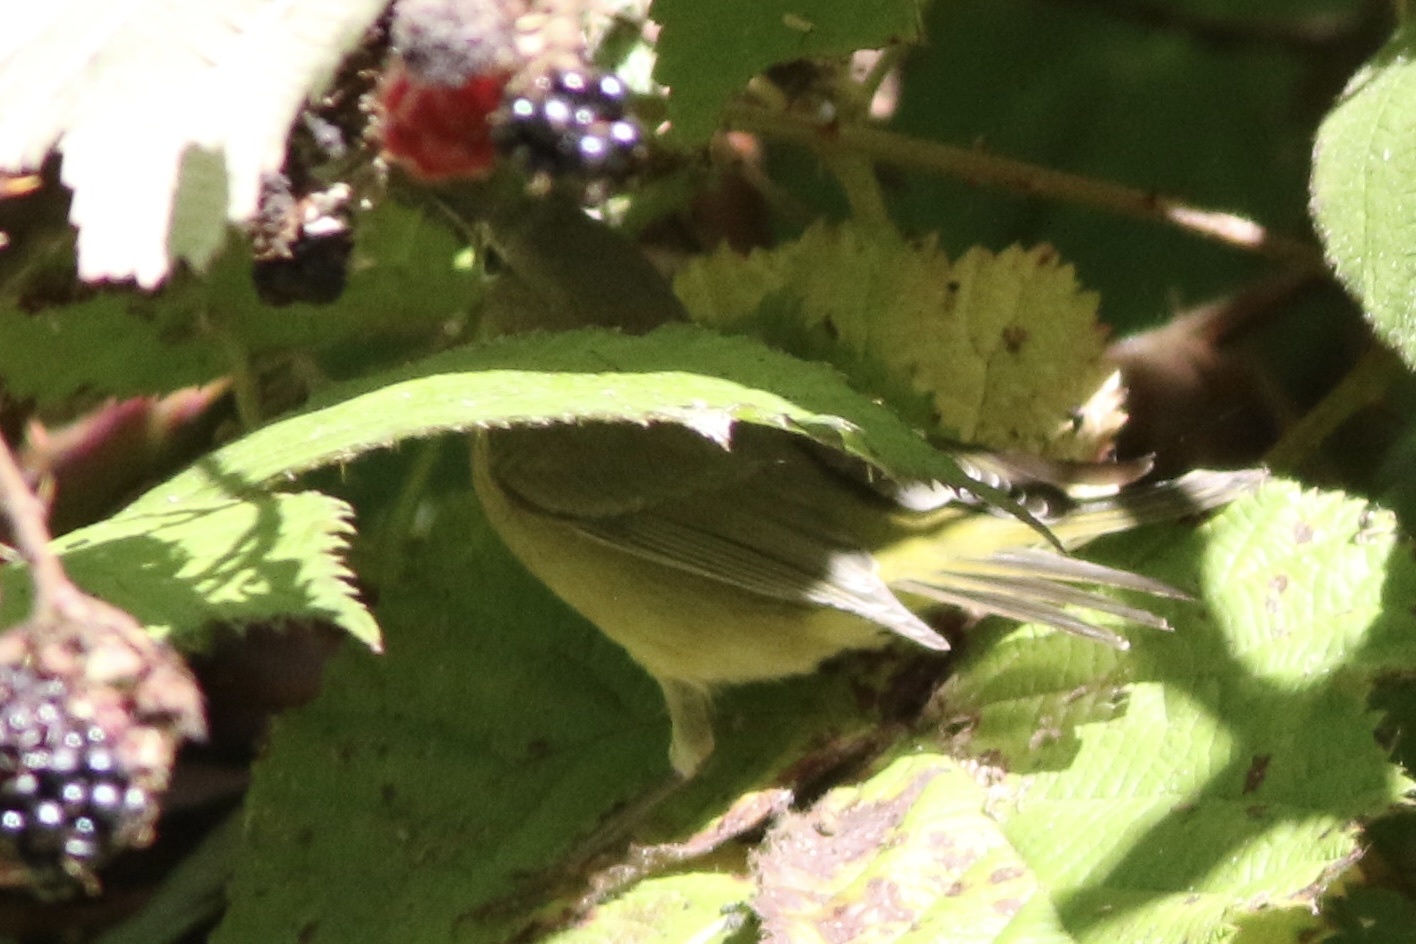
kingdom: Animalia
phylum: Chordata
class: Aves
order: Passeriformes
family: Parulidae
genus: Leiothlypis
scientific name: Leiothlypis celata
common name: Orange-crowned warbler
